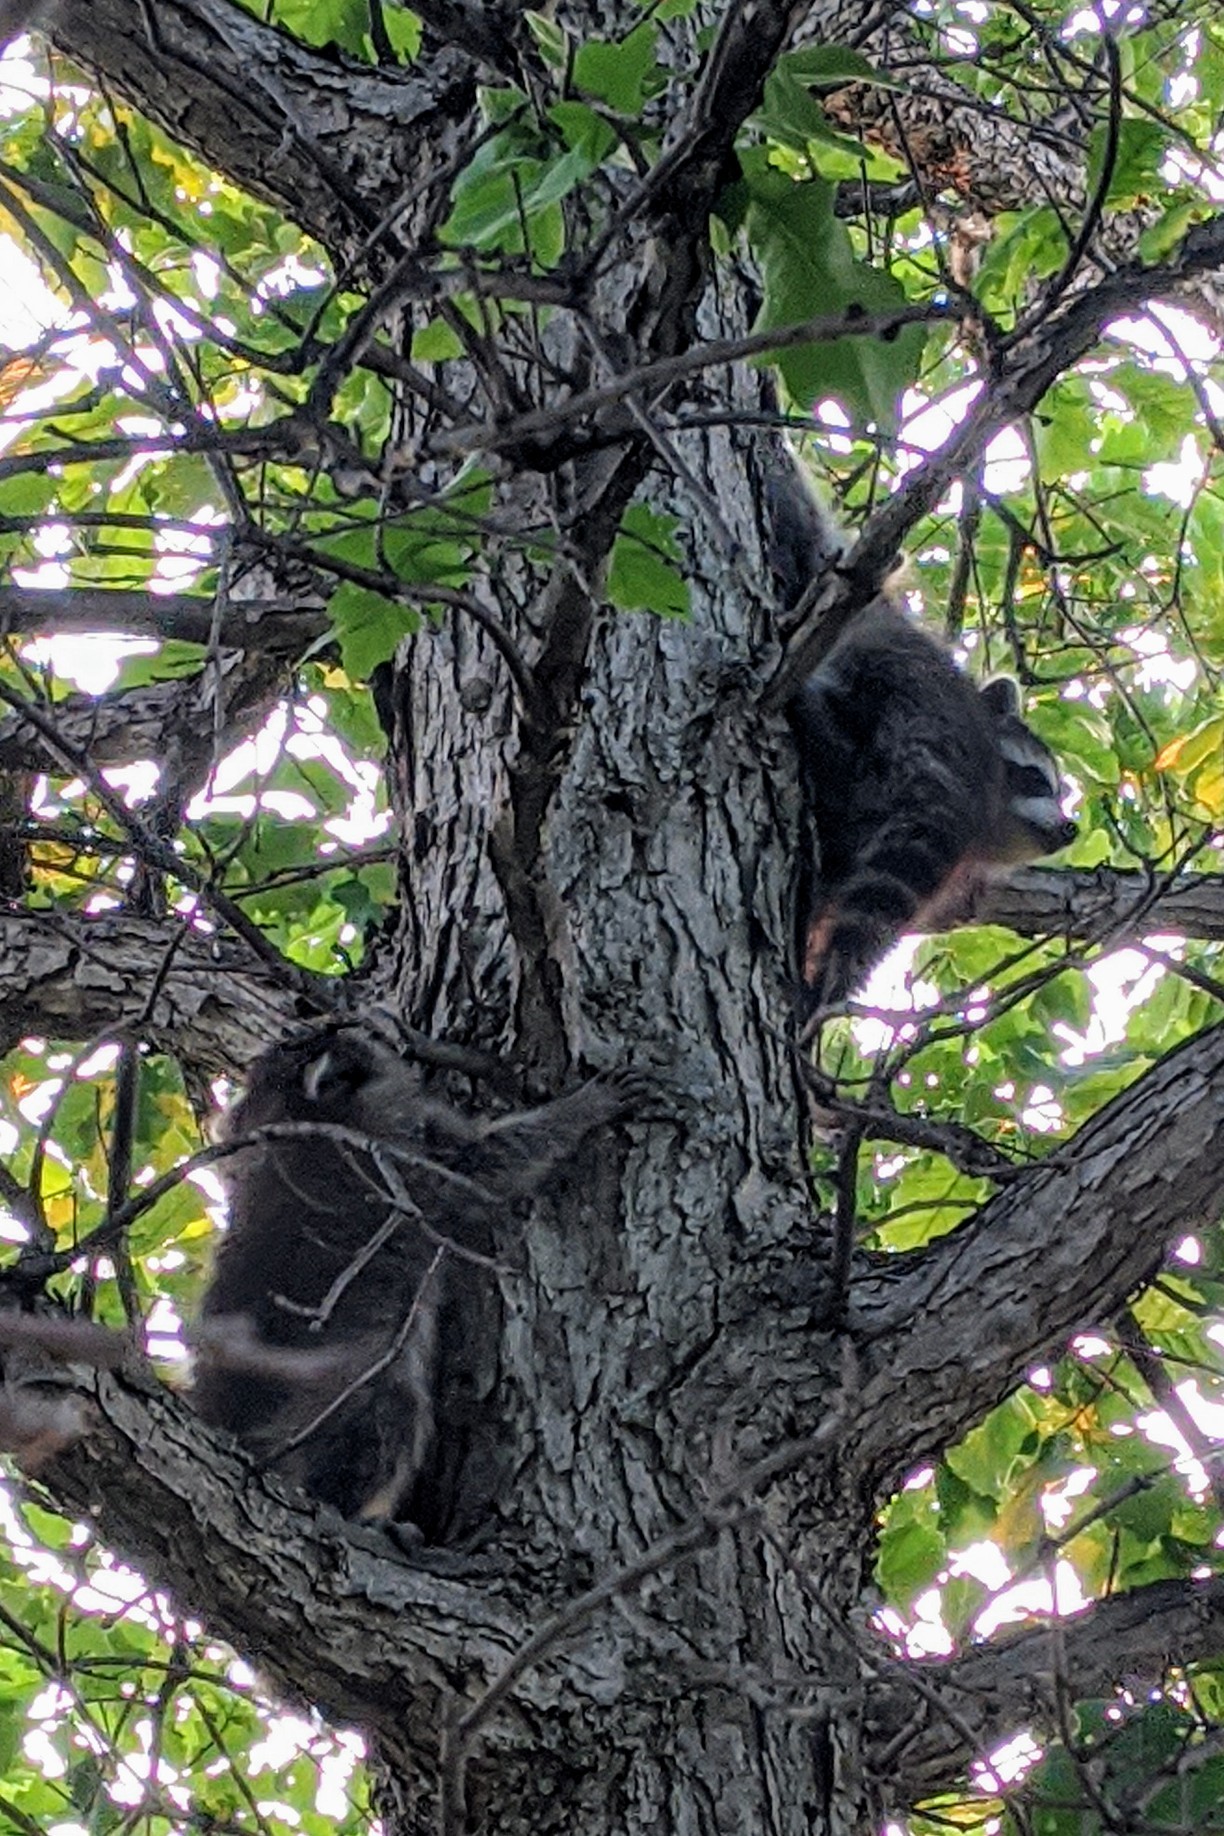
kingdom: Animalia
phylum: Chordata
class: Mammalia
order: Carnivora
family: Procyonidae
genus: Procyon
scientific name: Procyon lotor
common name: Raccoon
